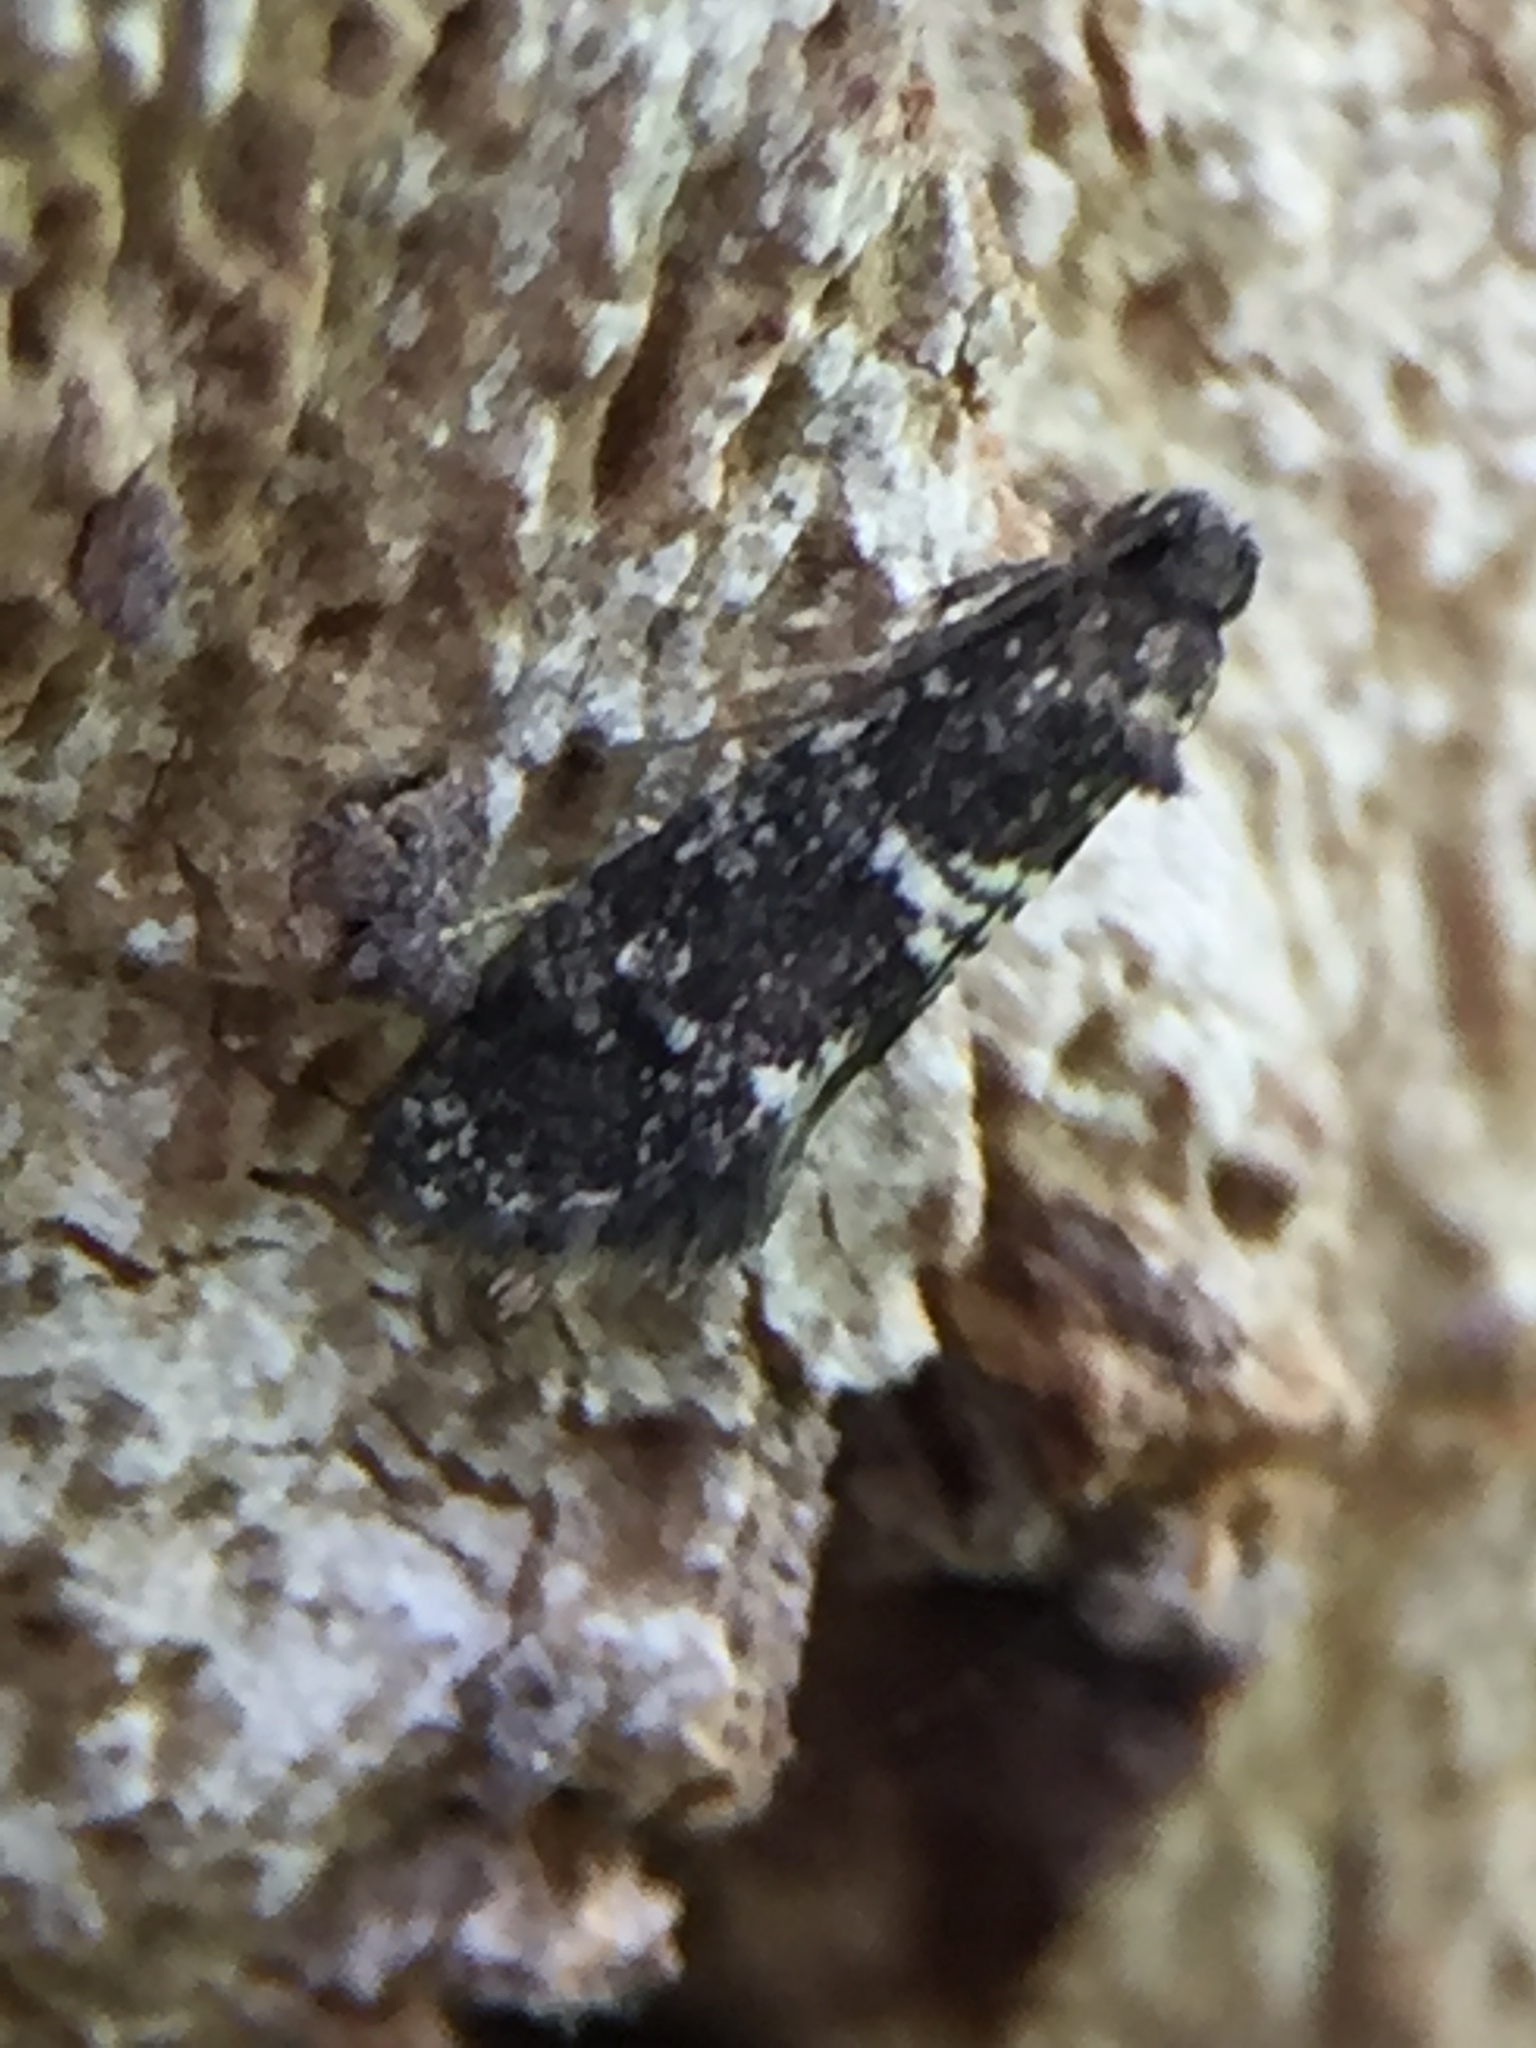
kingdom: Animalia
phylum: Arthropoda
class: Insecta
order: Lepidoptera
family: Psychidae
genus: Scoriodyta
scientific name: Scoriodyta conisalia
